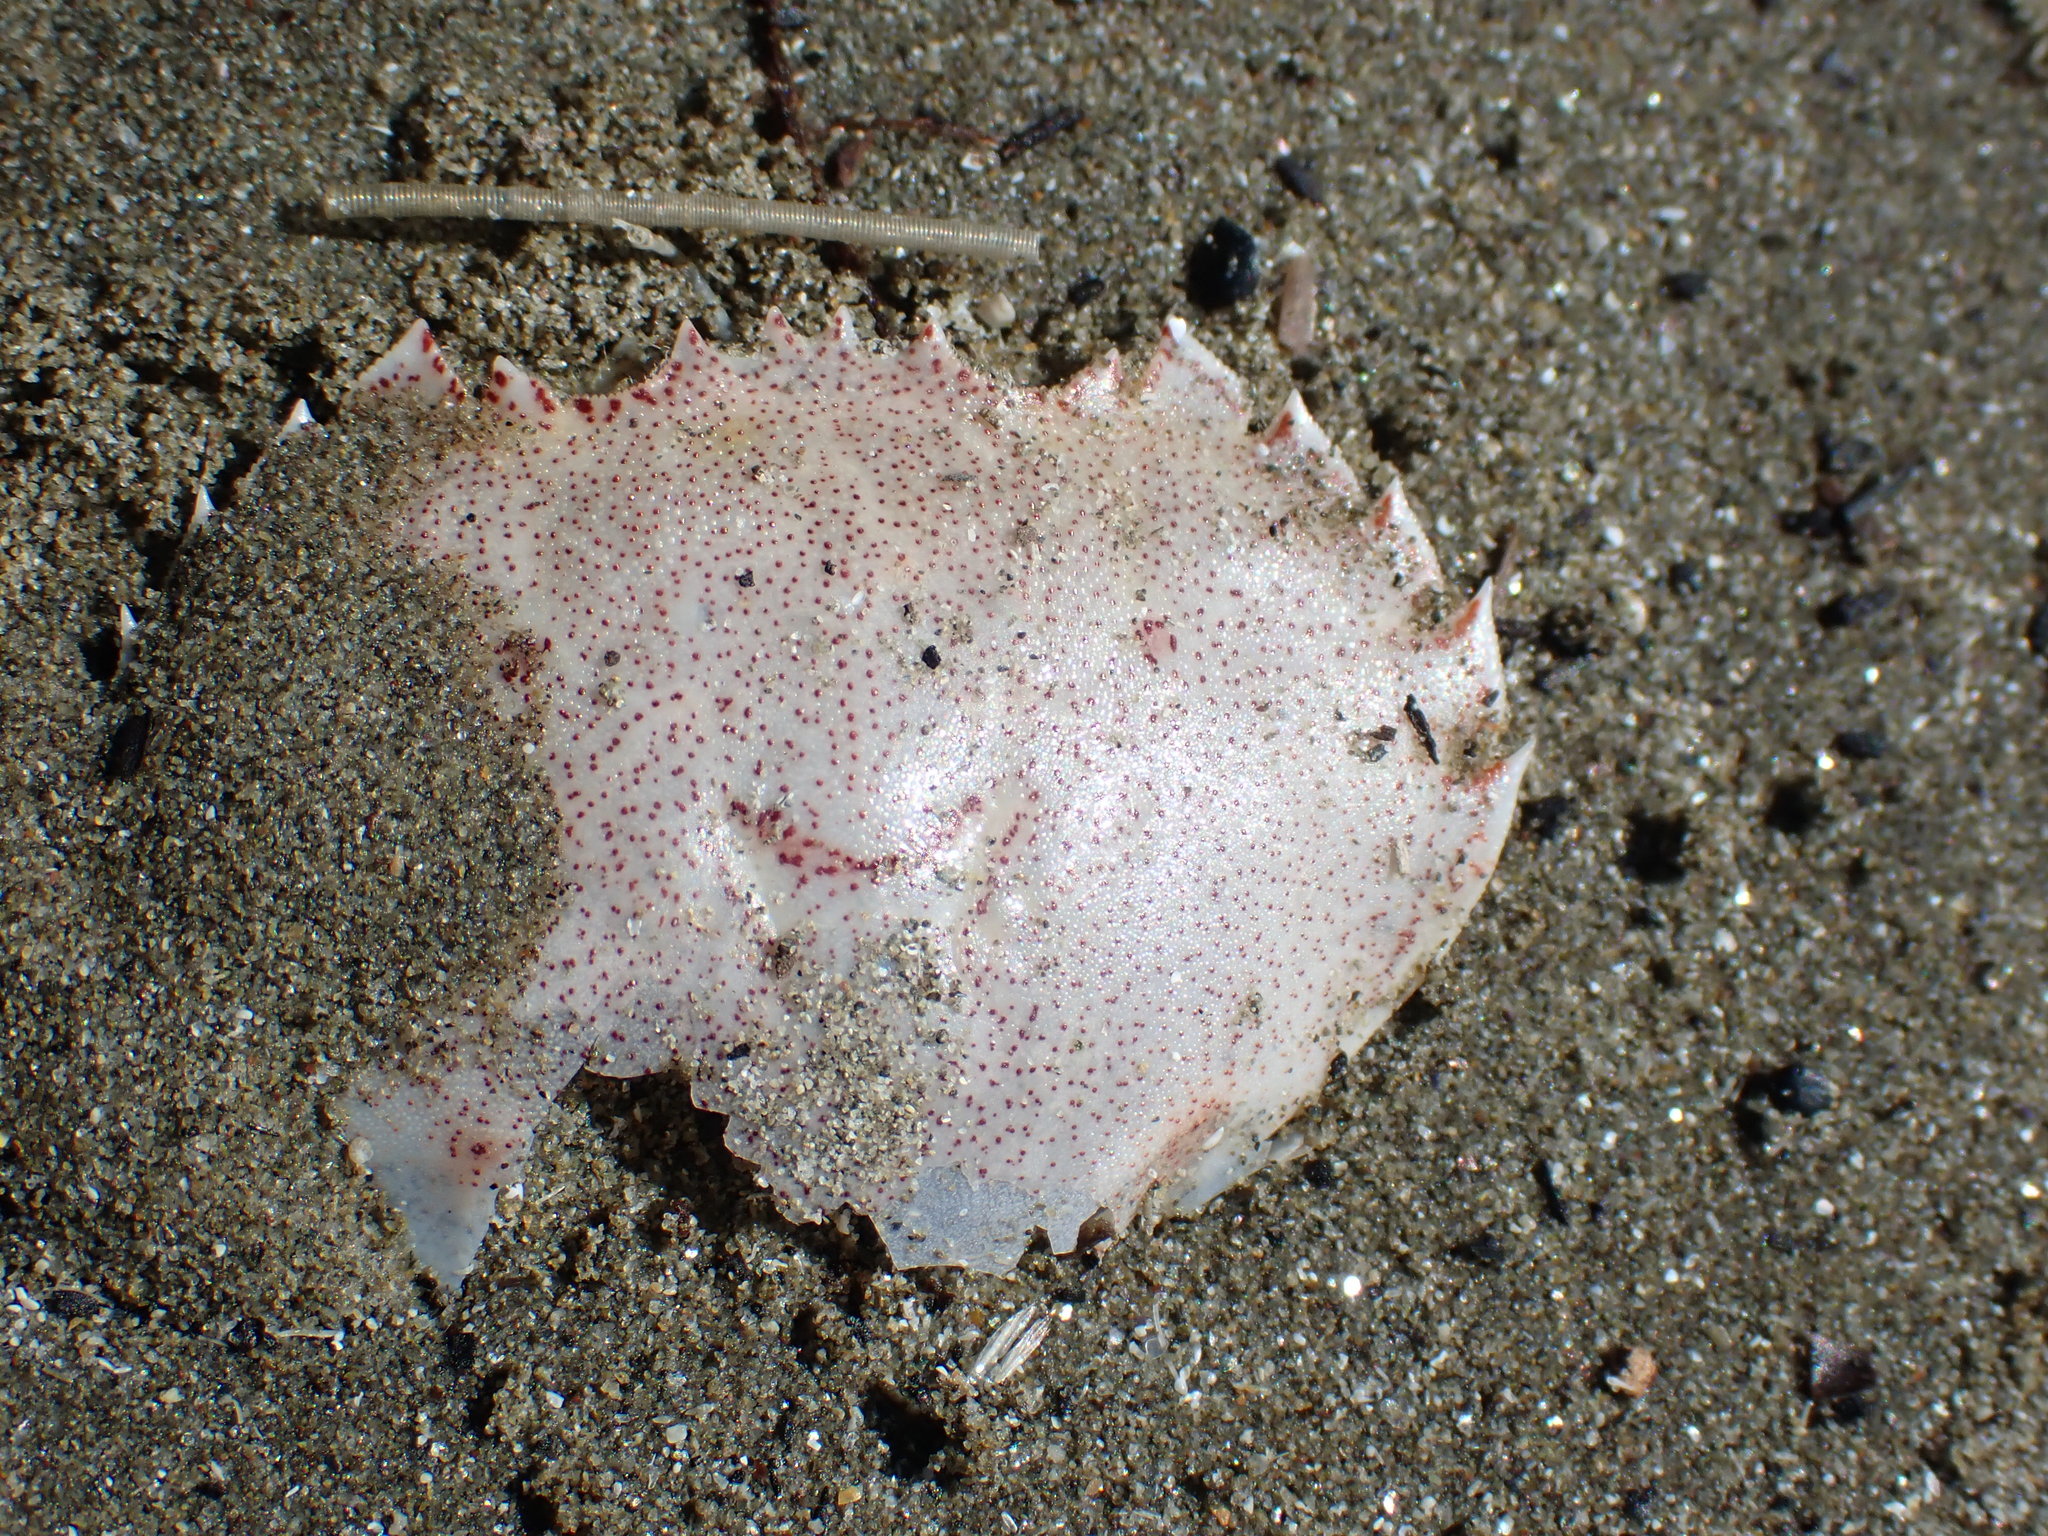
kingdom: Animalia
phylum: Arthropoda
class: Malacostraca
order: Decapoda
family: Ovalipidae
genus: Ovalipes
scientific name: Ovalipes catharus
